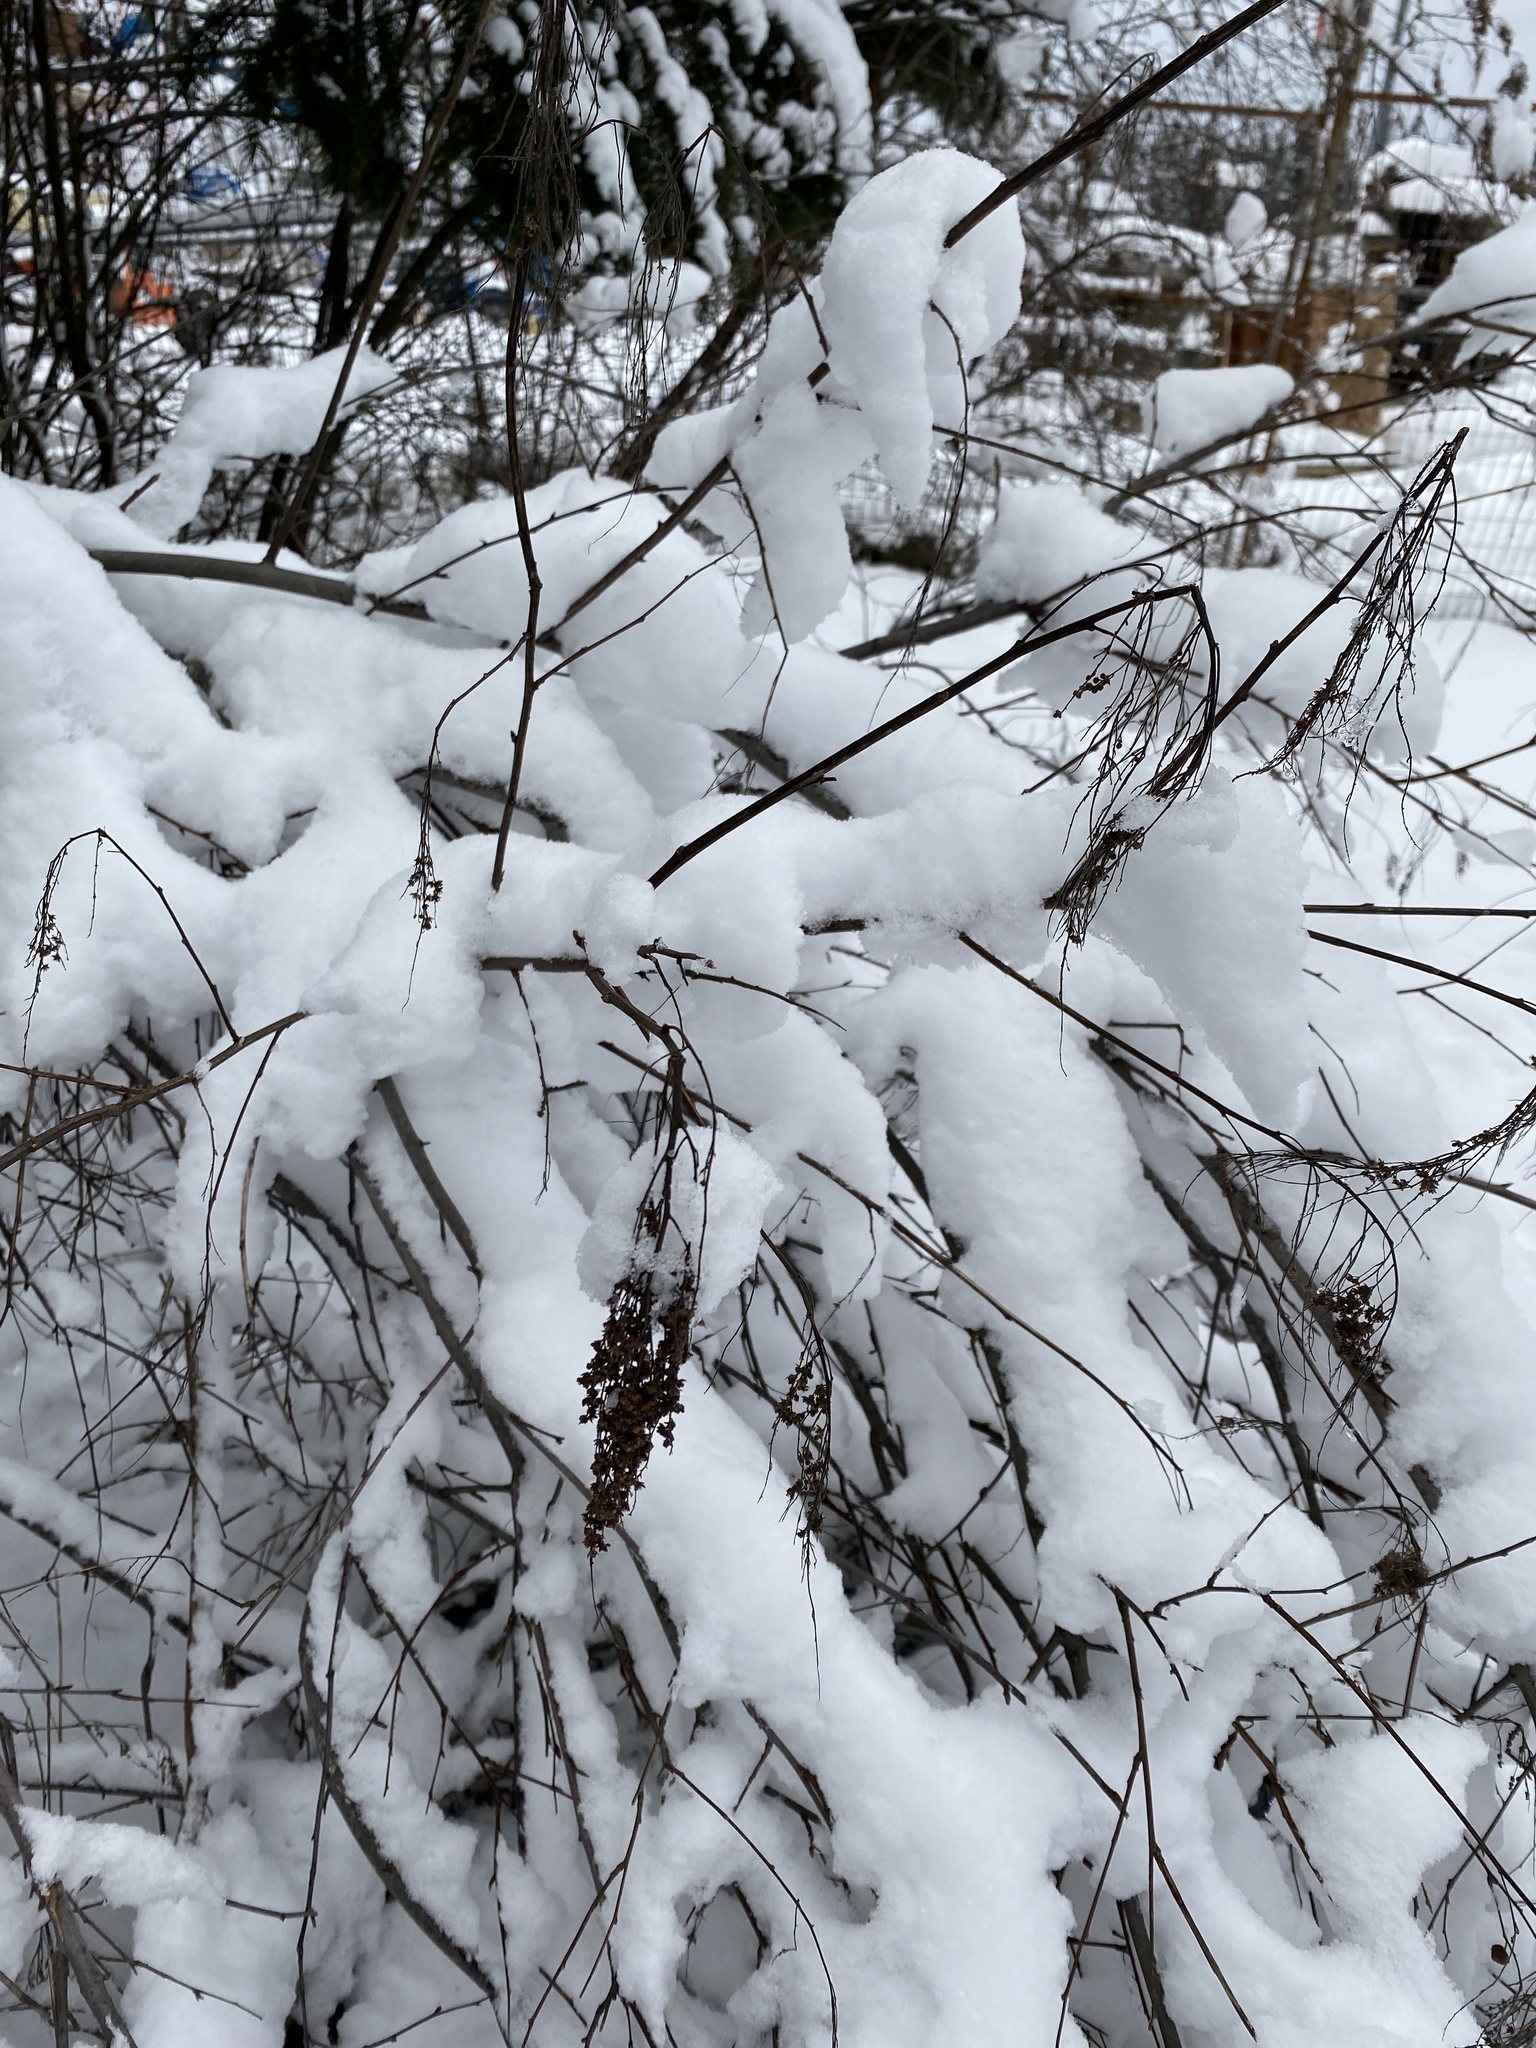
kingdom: Plantae
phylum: Tracheophyta
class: Magnoliopsida
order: Rosales
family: Rosaceae
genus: Holodiscus
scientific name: Holodiscus discolor
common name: Oceanspray
